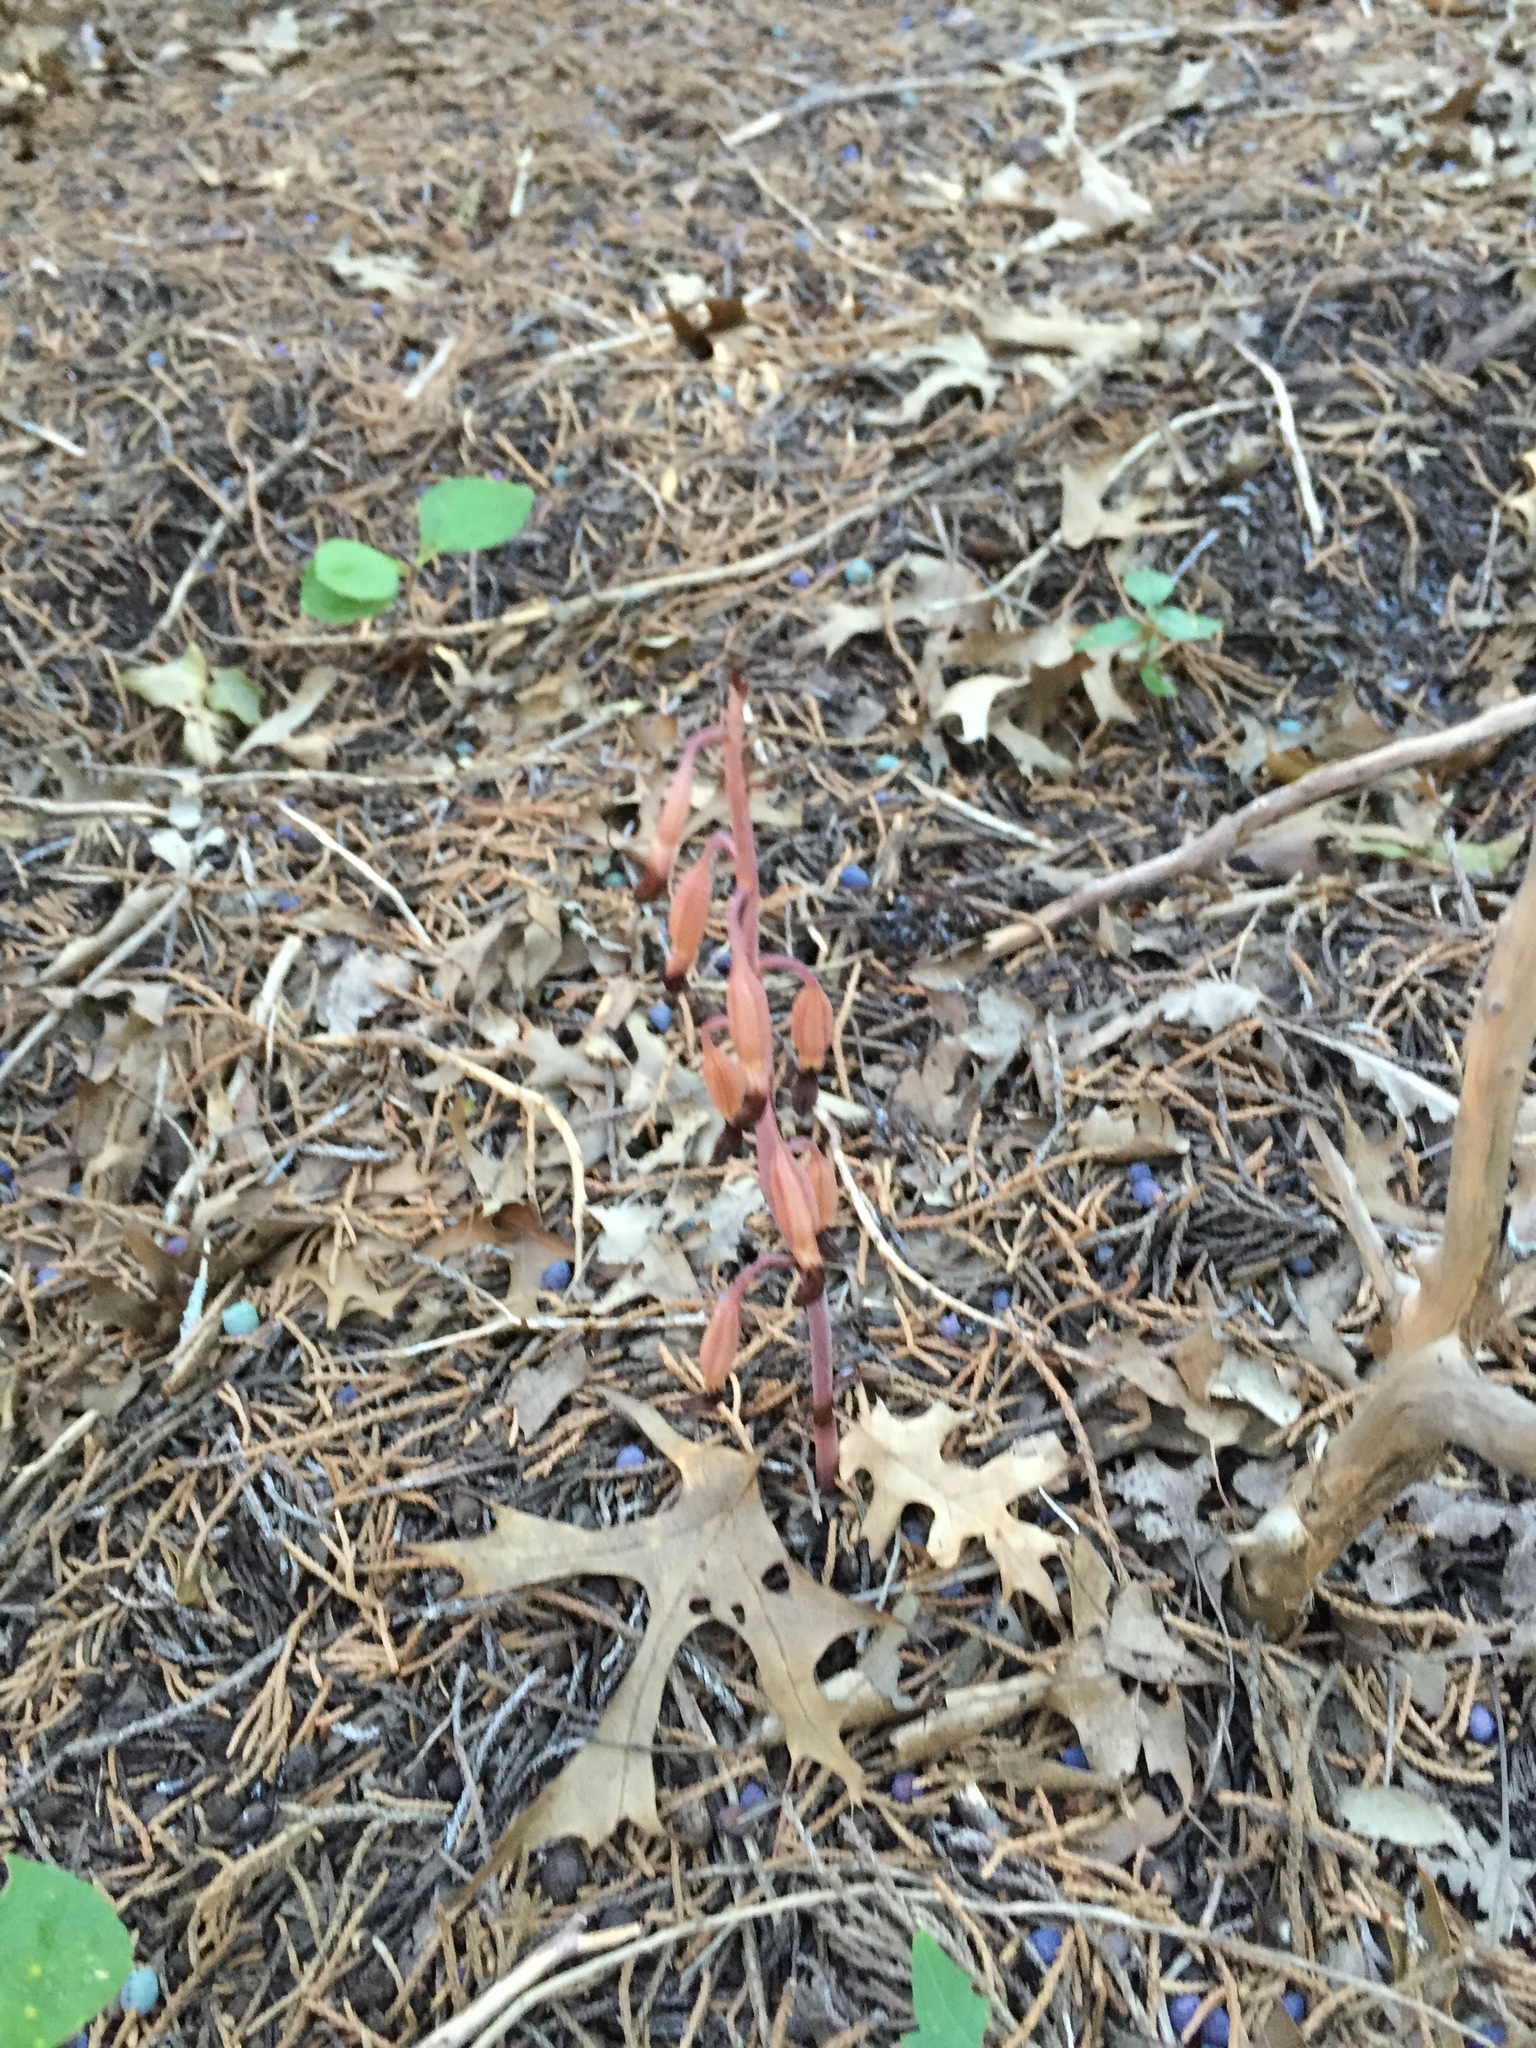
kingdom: Plantae
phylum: Tracheophyta
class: Liliopsida
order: Asparagales
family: Orchidaceae
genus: Bletia
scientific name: Bletia nitida
